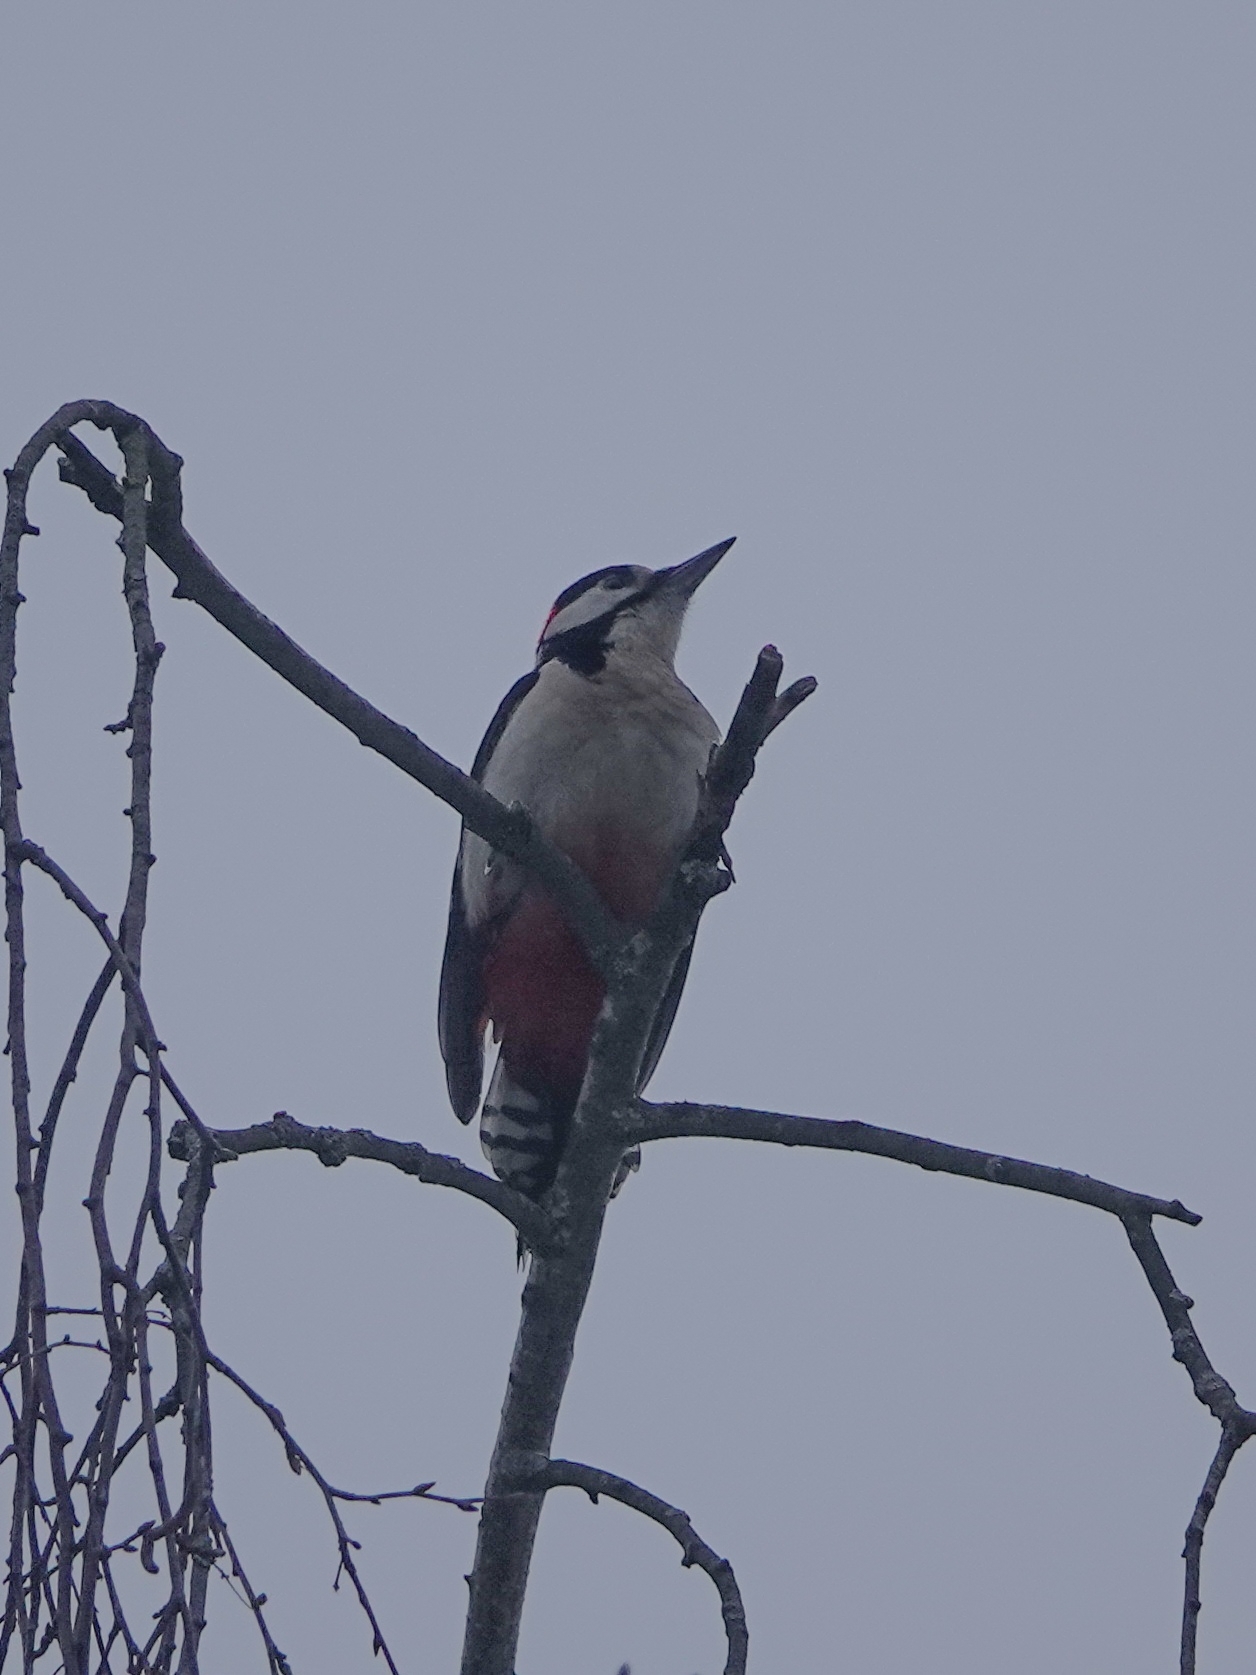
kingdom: Animalia
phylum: Chordata
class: Aves
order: Piciformes
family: Picidae
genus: Dendrocopos
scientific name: Dendrocopos major
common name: Great spotted woodpecker
